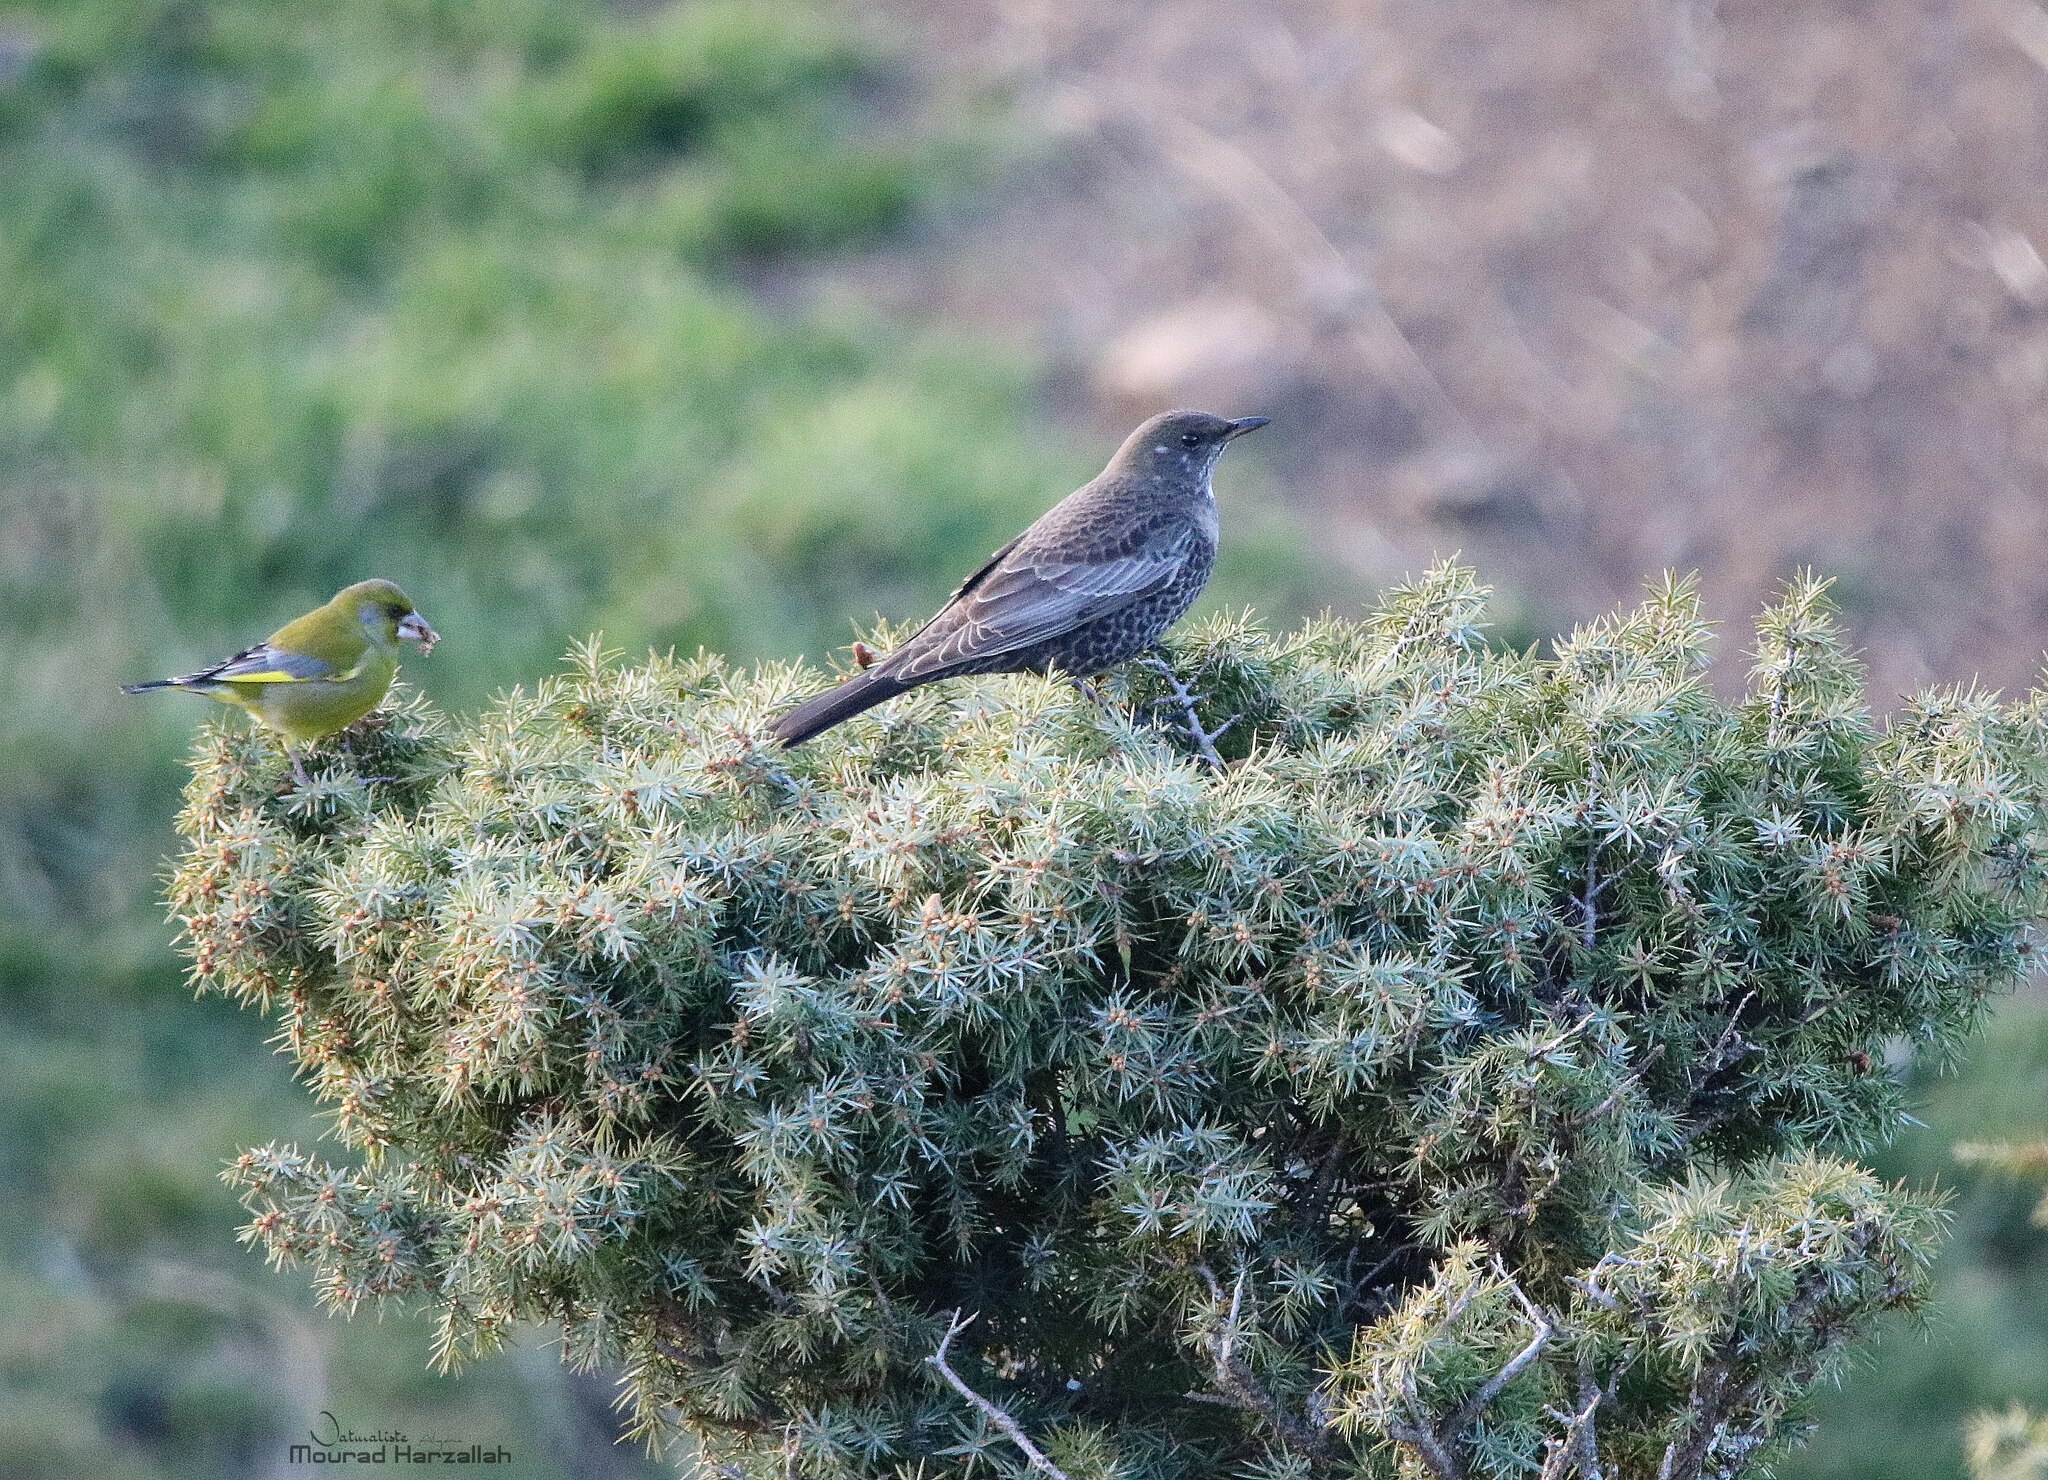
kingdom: Animalia
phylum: Chordata
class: Aves
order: Passeriformes
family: Turdidae
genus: Turdus
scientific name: Turdus torquatus
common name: Ring ouzel
